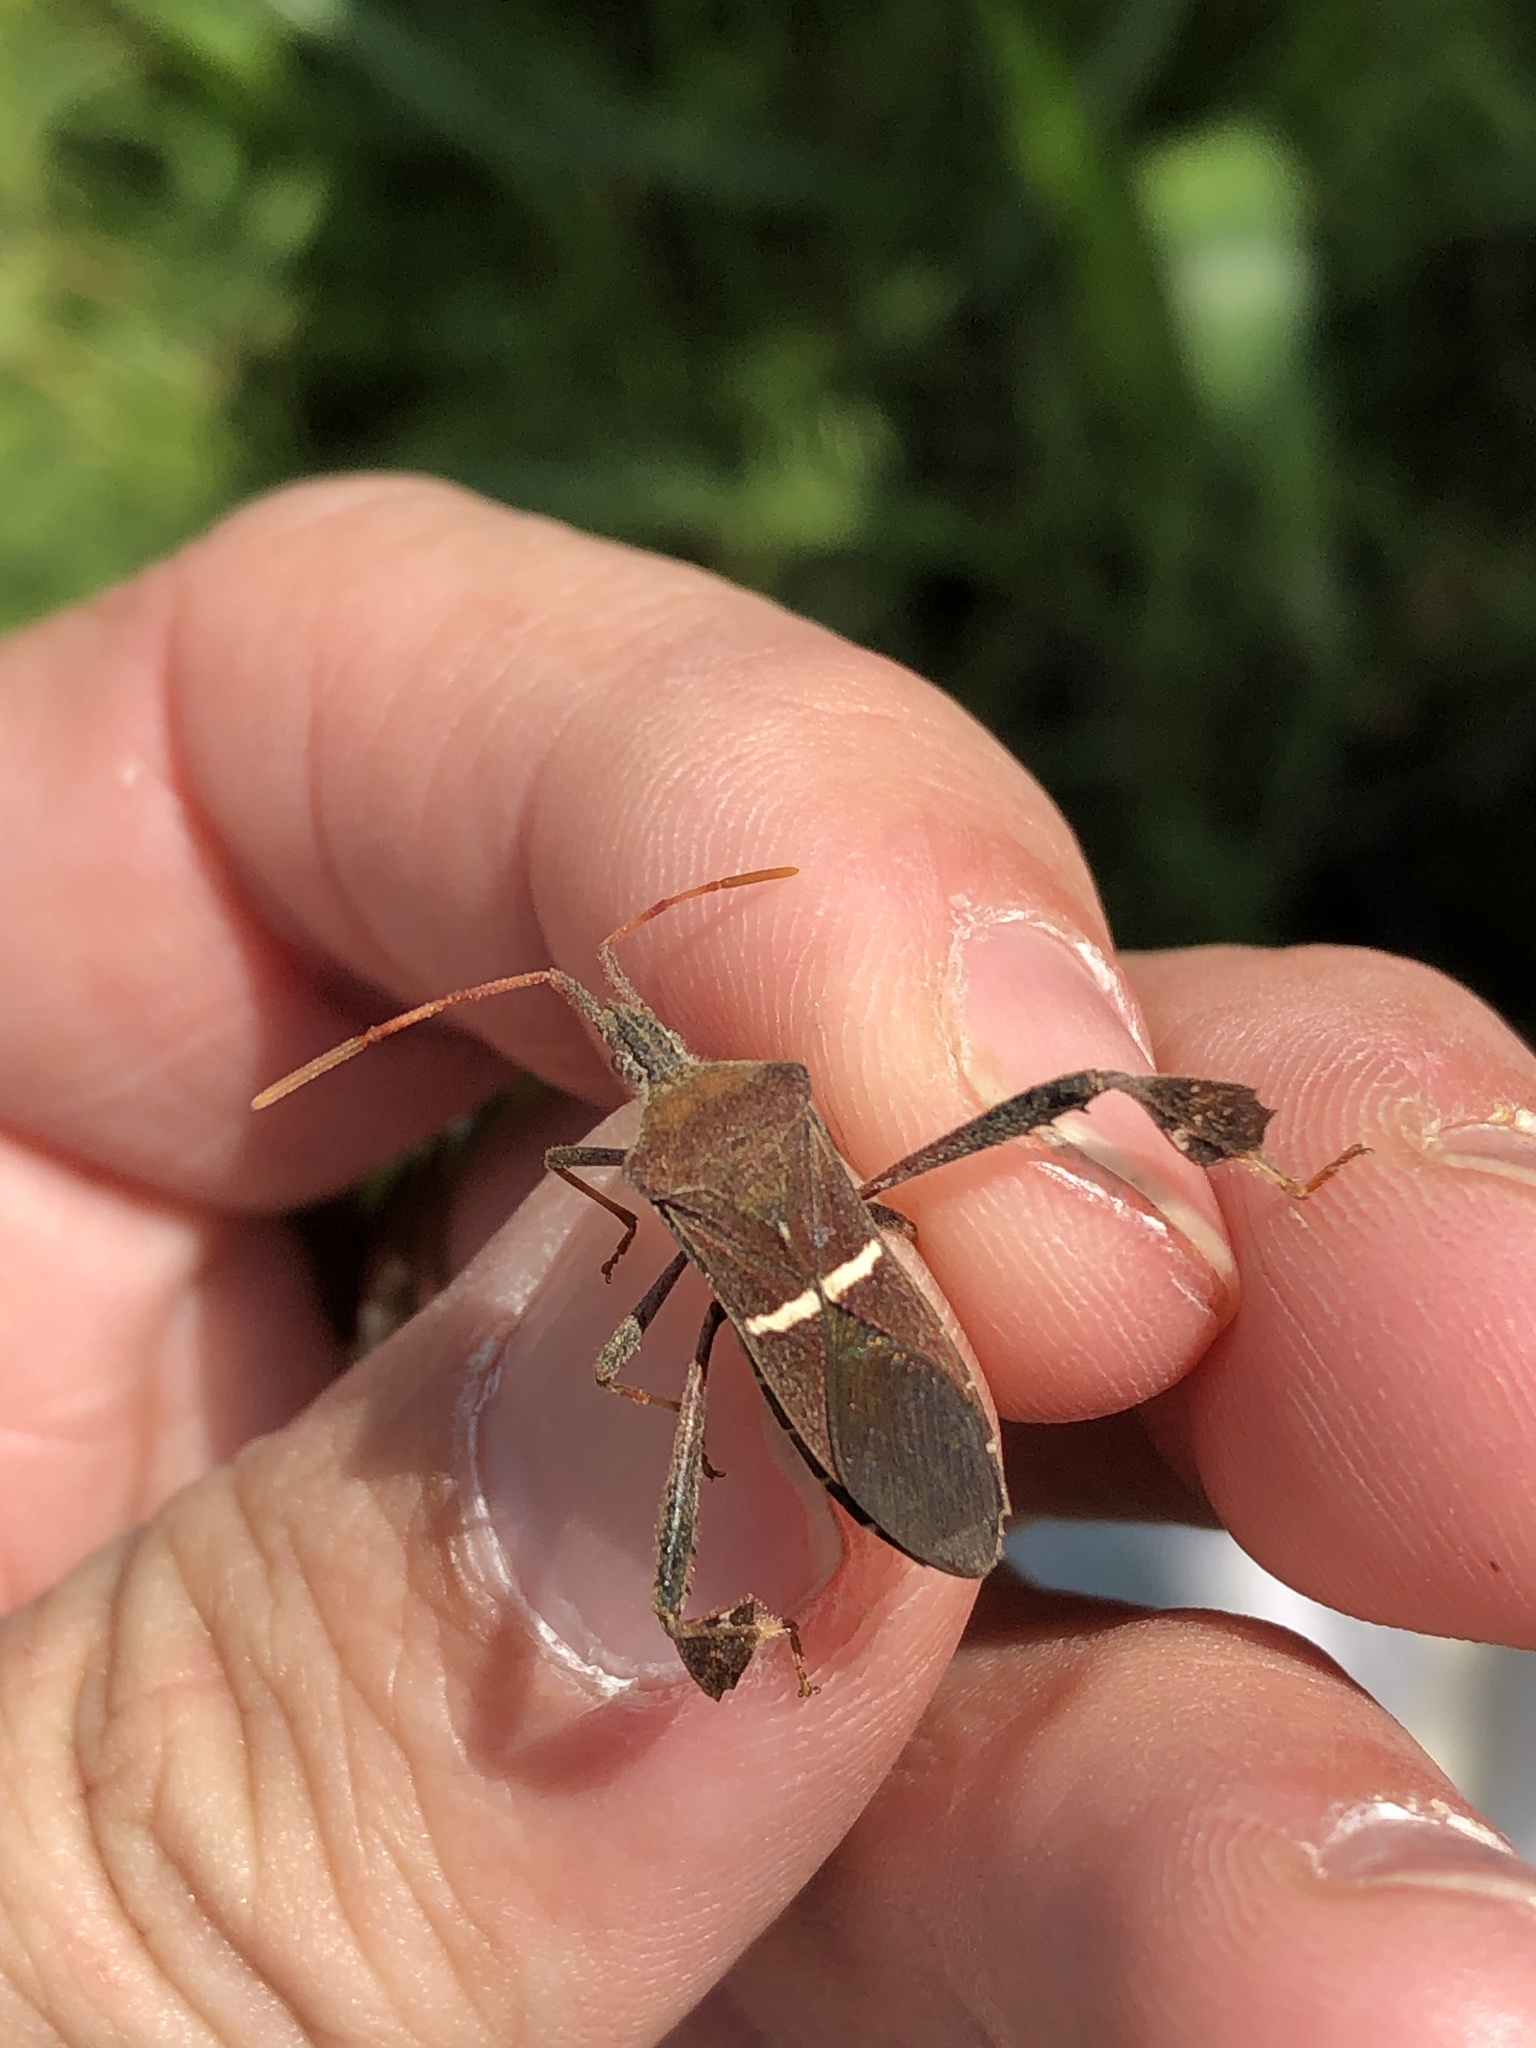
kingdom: Animalia
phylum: Arthropoda
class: Insecta
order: Hemiptera
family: Coreidae
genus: Leptoglossus
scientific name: Leptoglossus phyllopus
